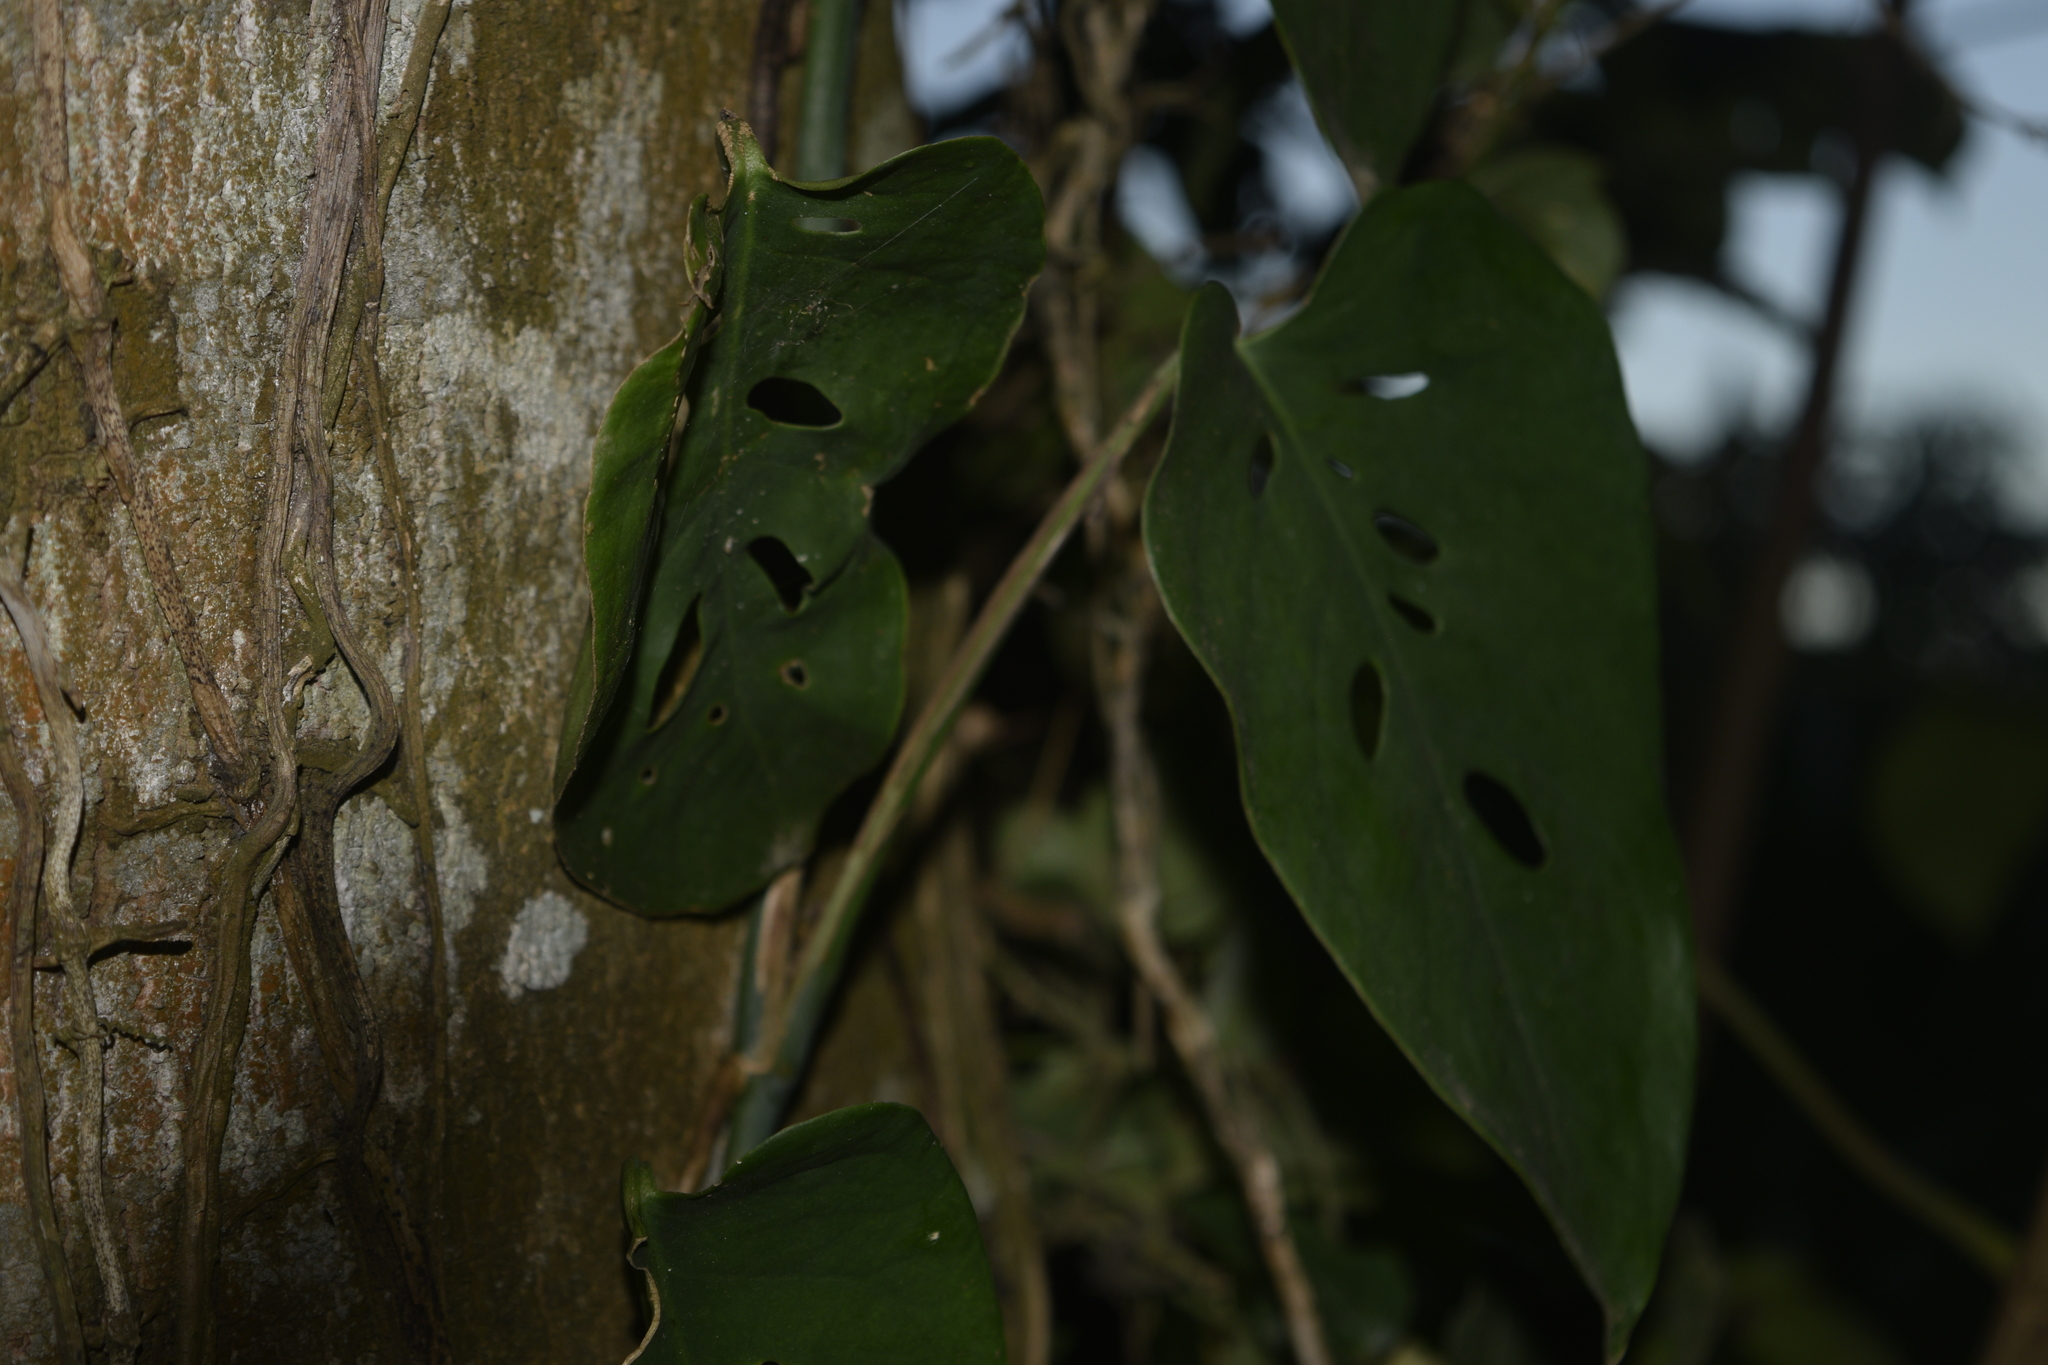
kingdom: Plantae
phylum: Tracheophyta
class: Liliopsida
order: Alismatales
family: Araceae
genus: Monstera
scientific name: Monstera siltepecana
